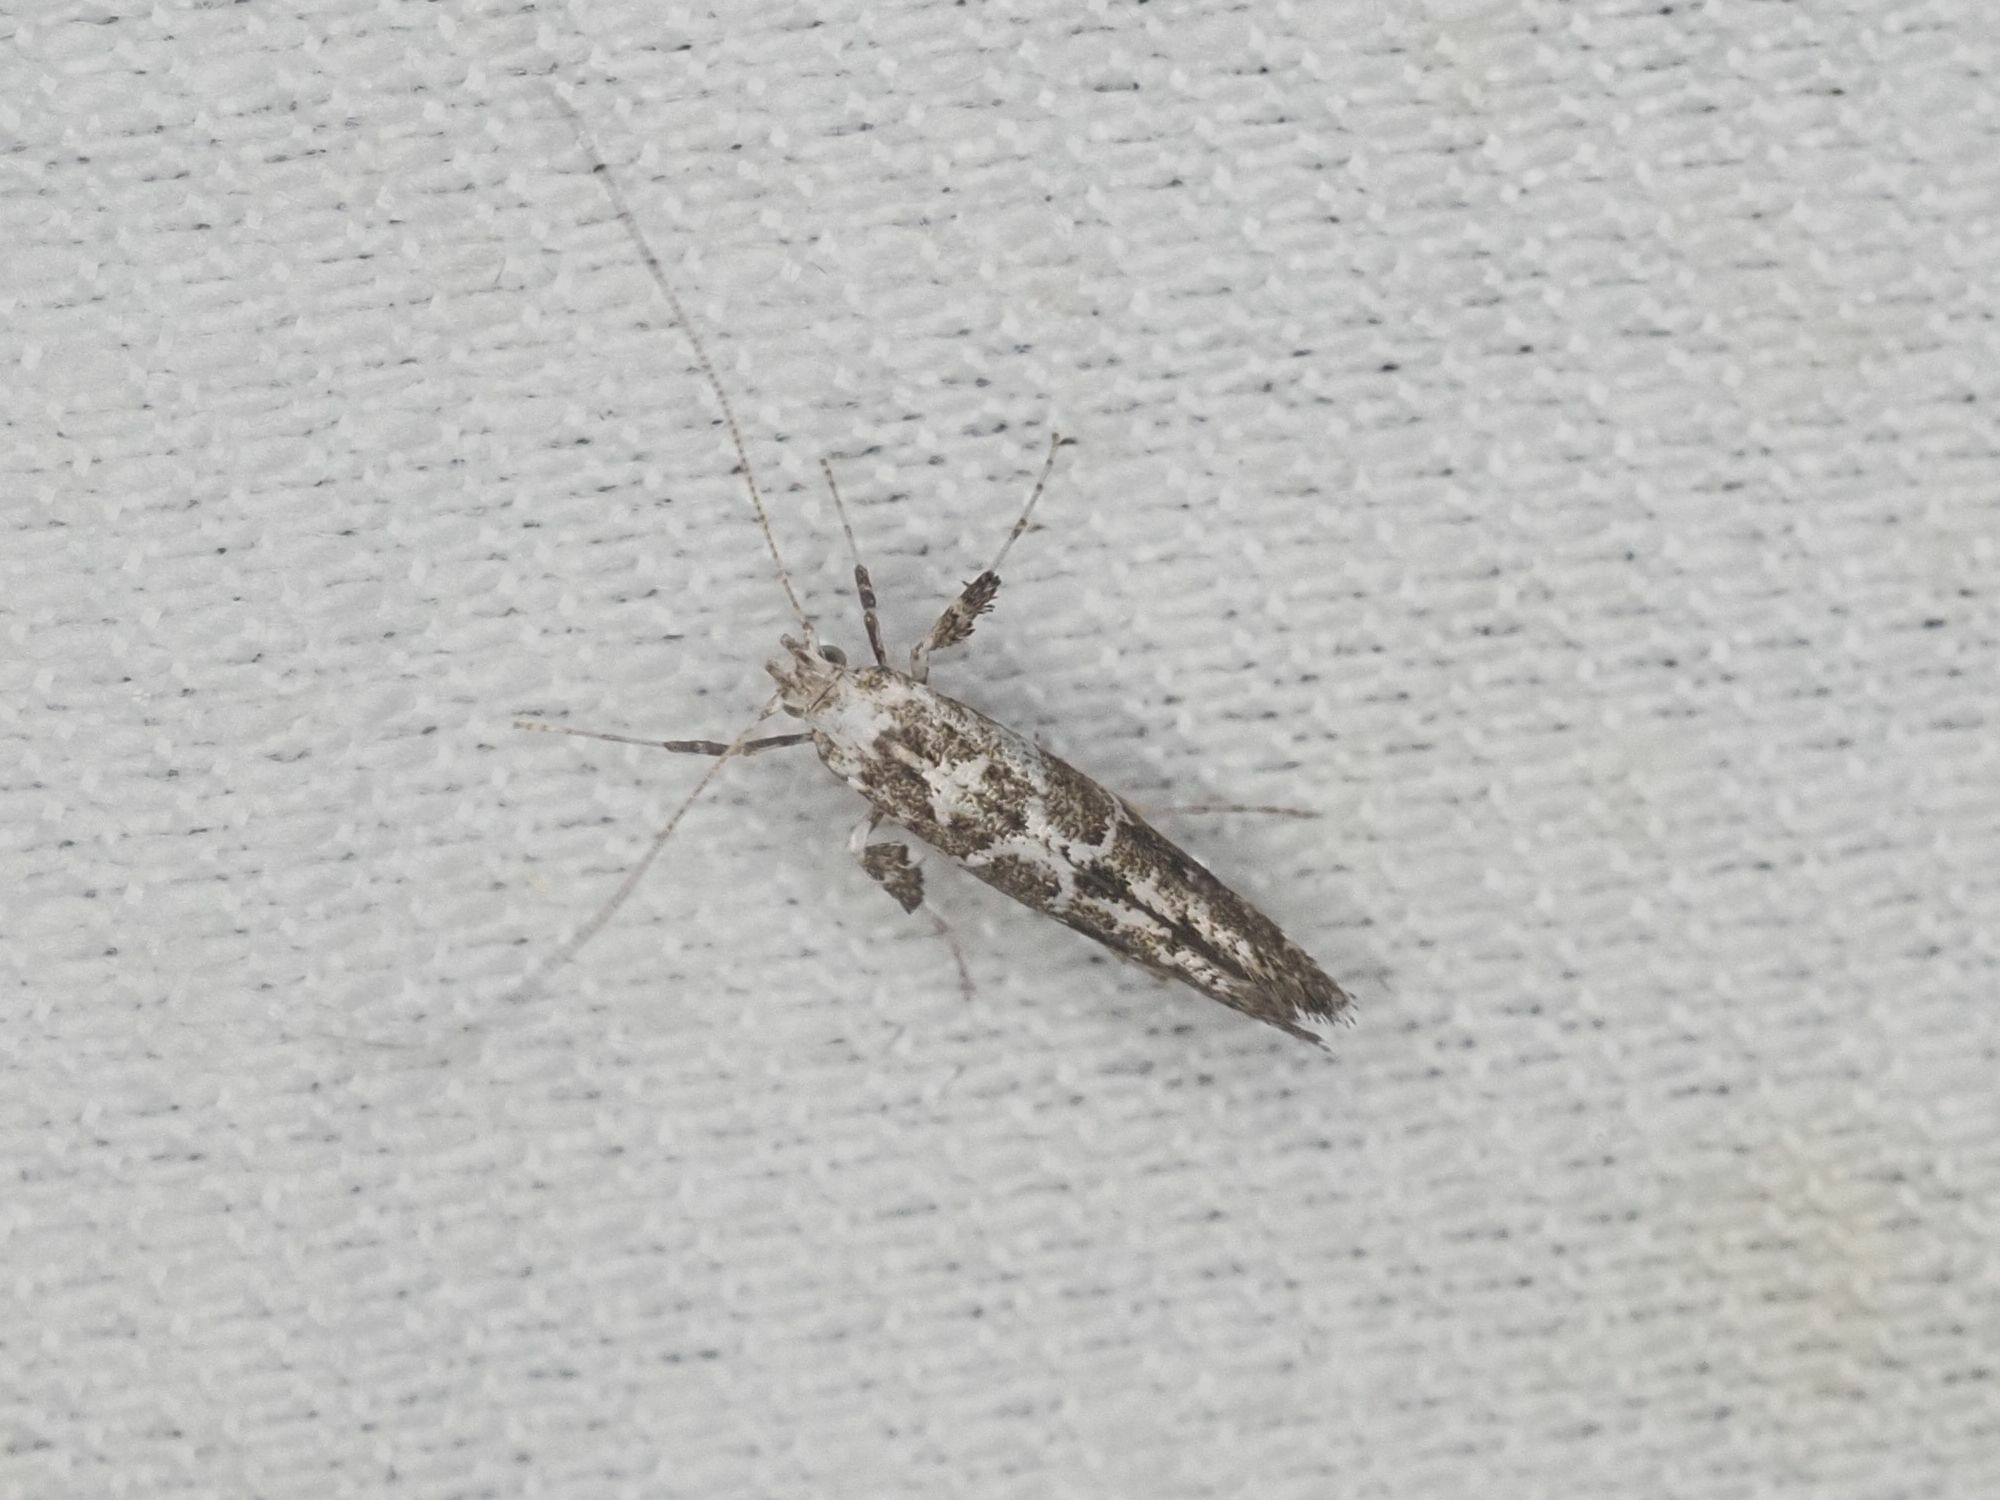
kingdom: Animalia
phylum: Arthropoda
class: Insecta
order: Lepidoptera
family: Gracillariidae
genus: Gracillaria
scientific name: Gracillaria loriolella
